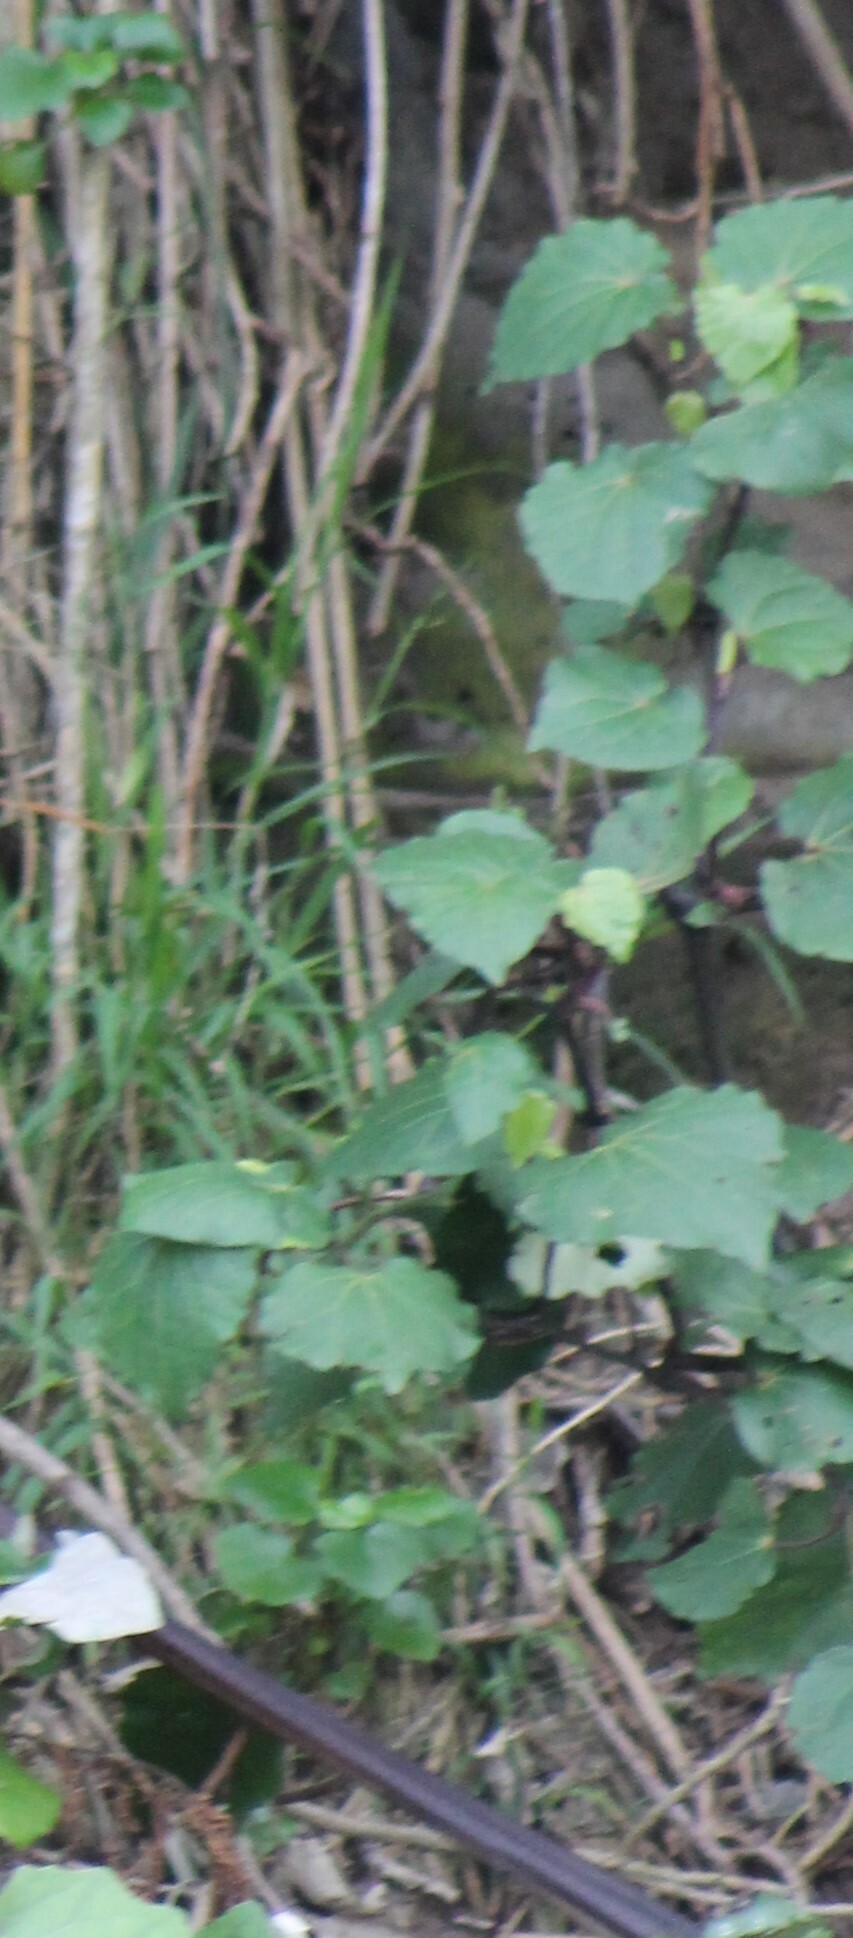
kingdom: Plantae
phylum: Tracheophyta
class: Magnoliopsida
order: Piperales
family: Piperaceae
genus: Macropiper
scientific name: Macropiper excelsum
